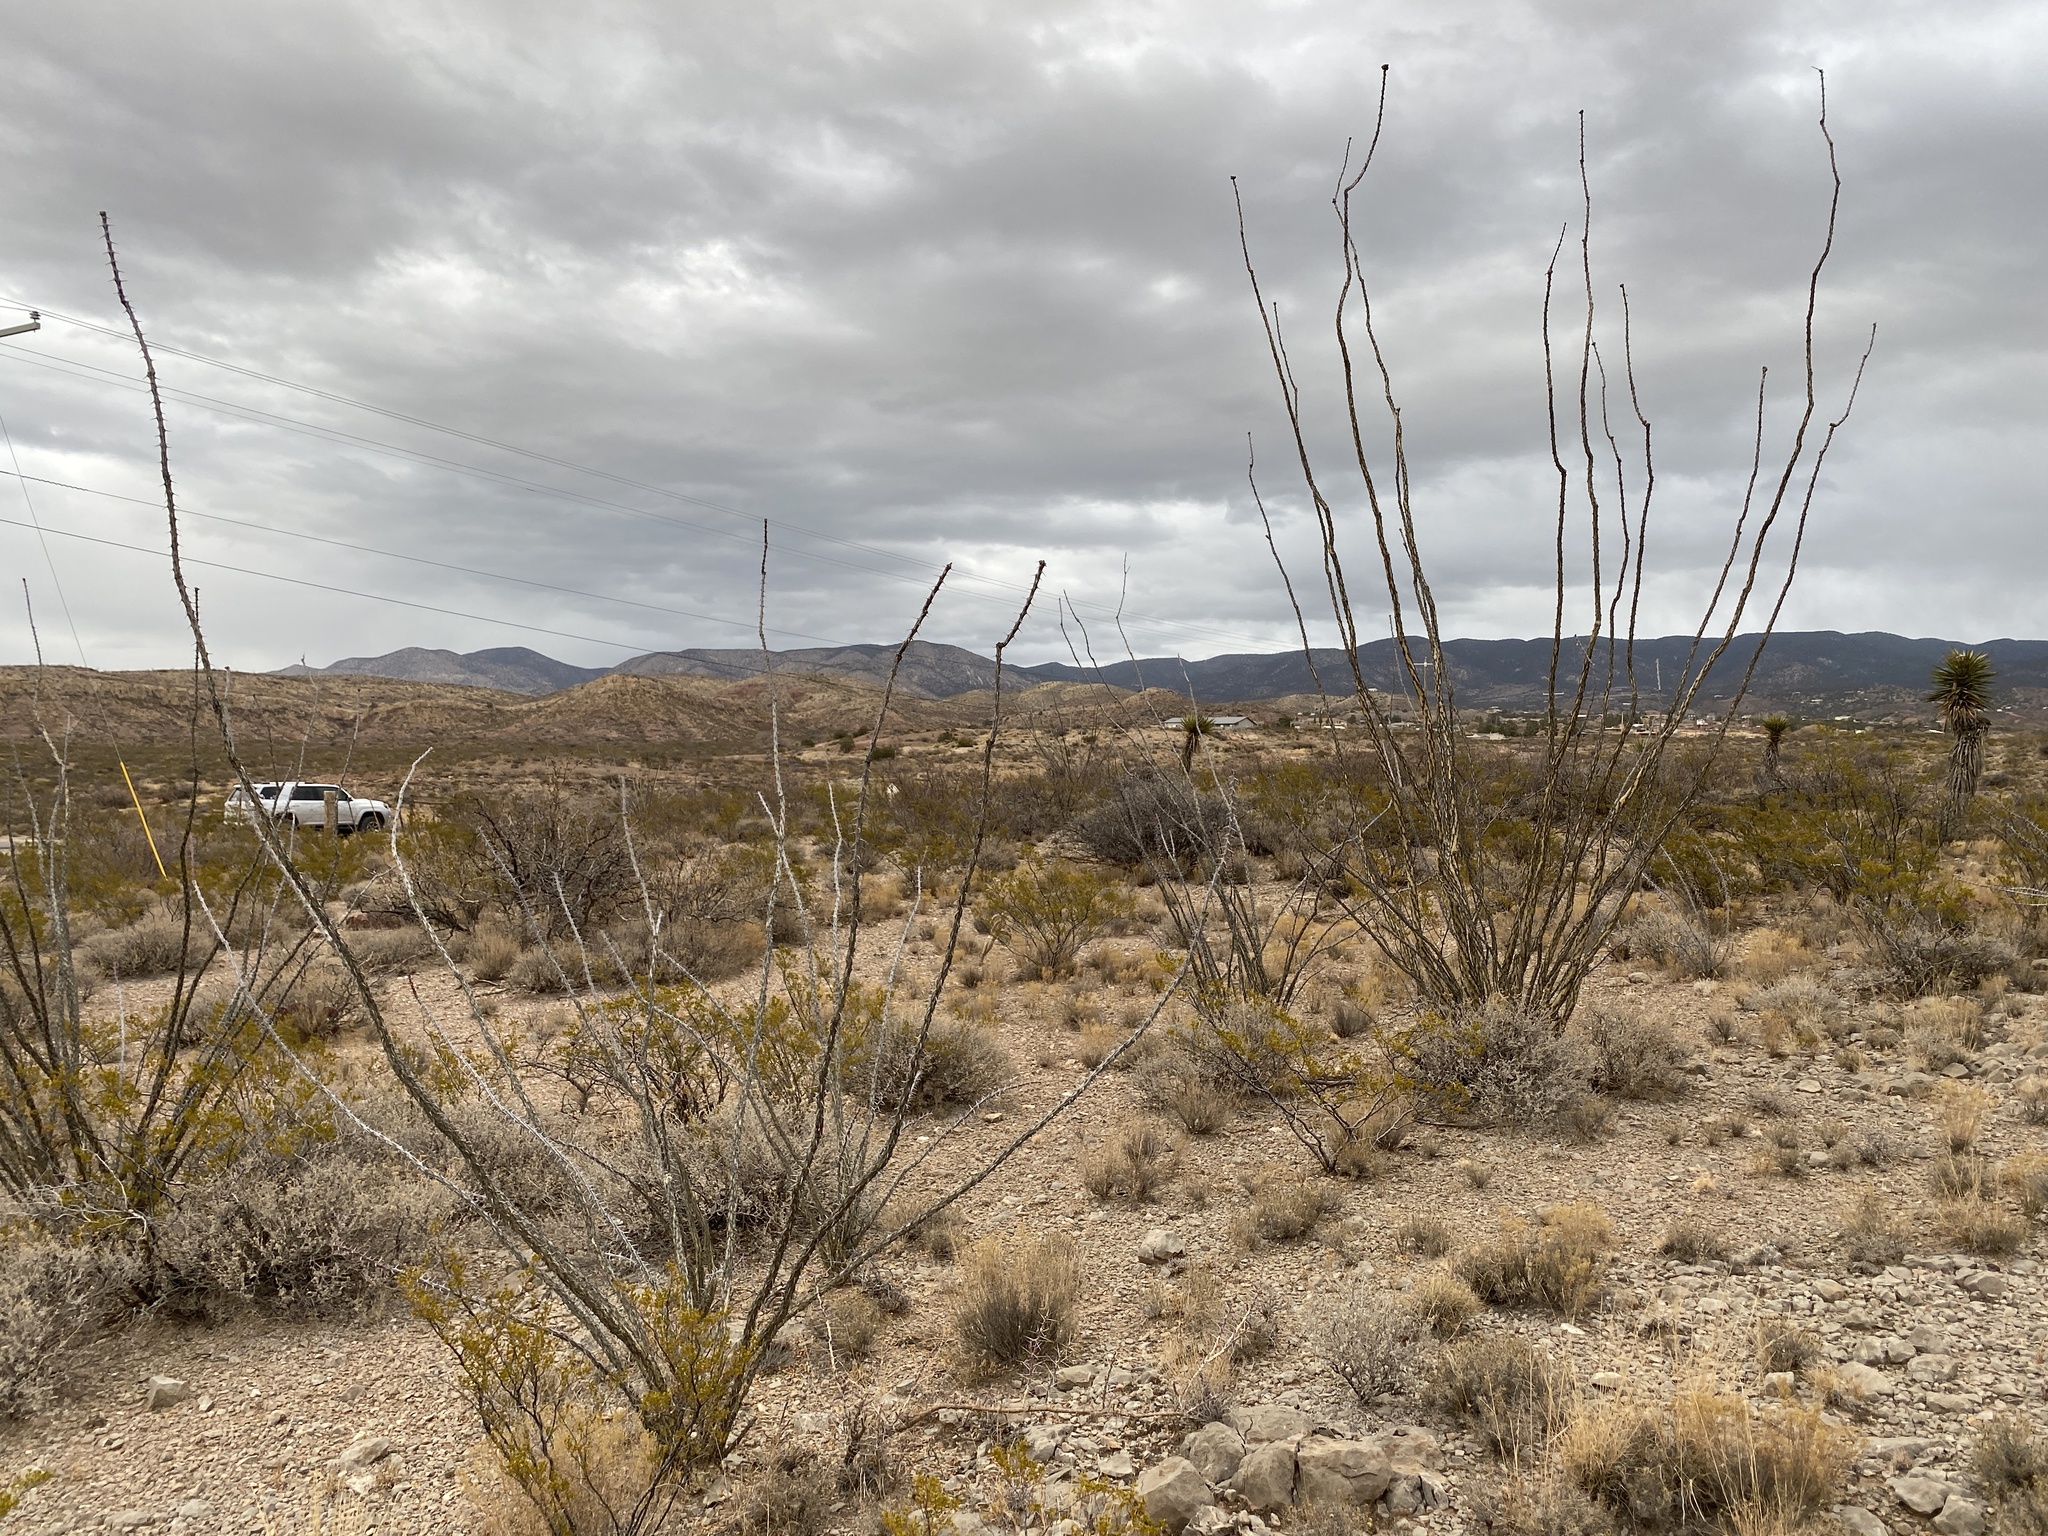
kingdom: Plantae
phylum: Tracheophyta
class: Magnoliopsida
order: Ericales
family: Fouquieriaceae
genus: Fouquieria
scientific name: Fouquieria splendens
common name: Vine-cactus
